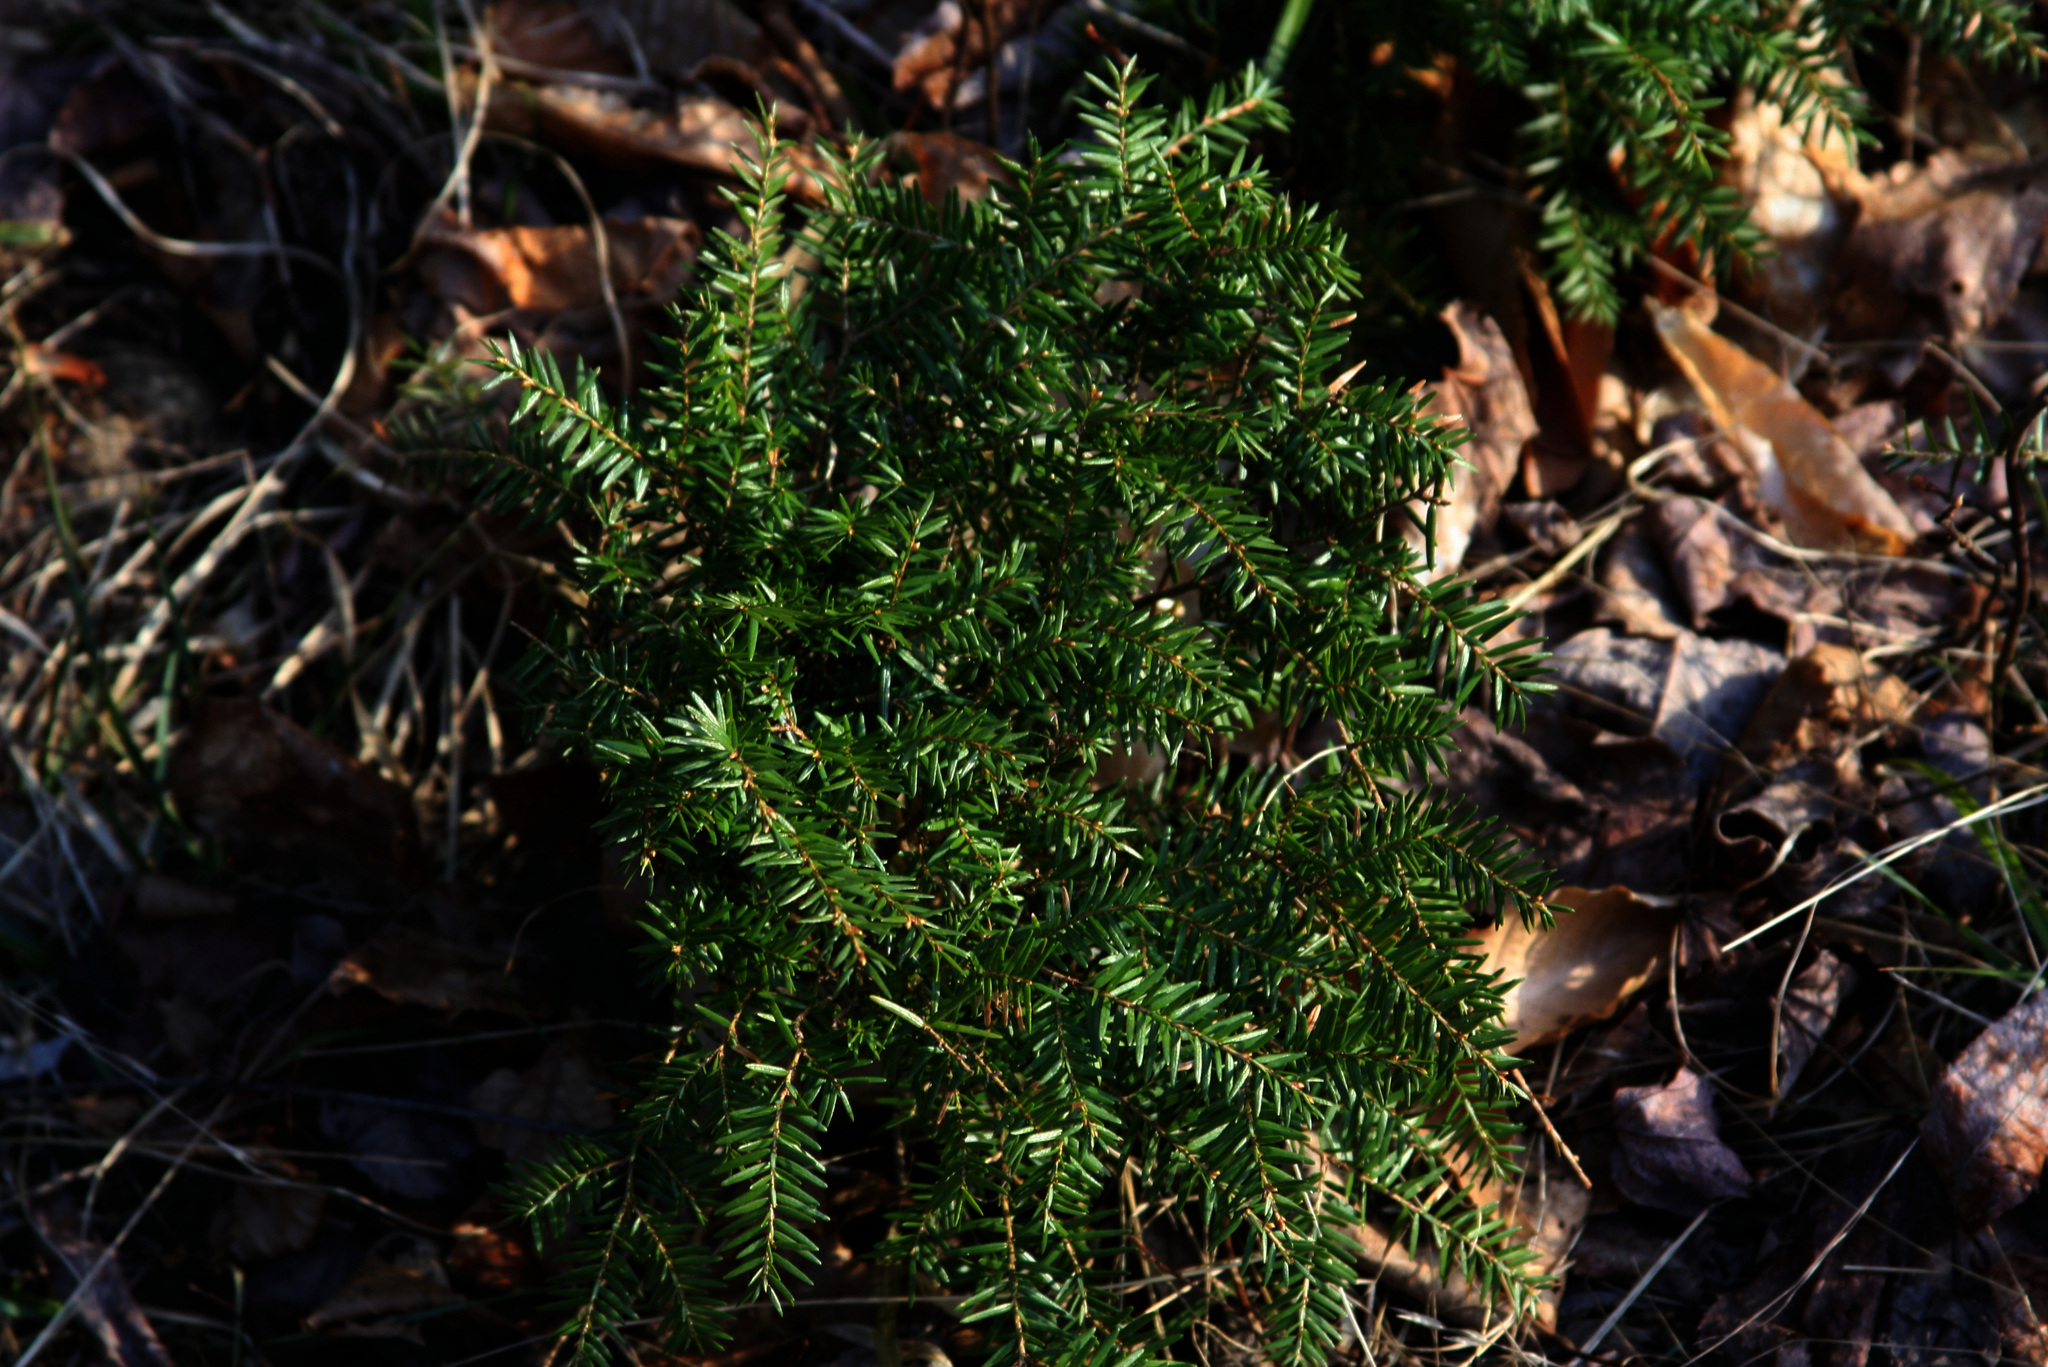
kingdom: Plantae
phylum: Tracheophyta
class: Pinopsida
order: Pinales
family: Pinaceae
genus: Tsuga
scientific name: Tsuga canadensis
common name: Eastern hemlock
